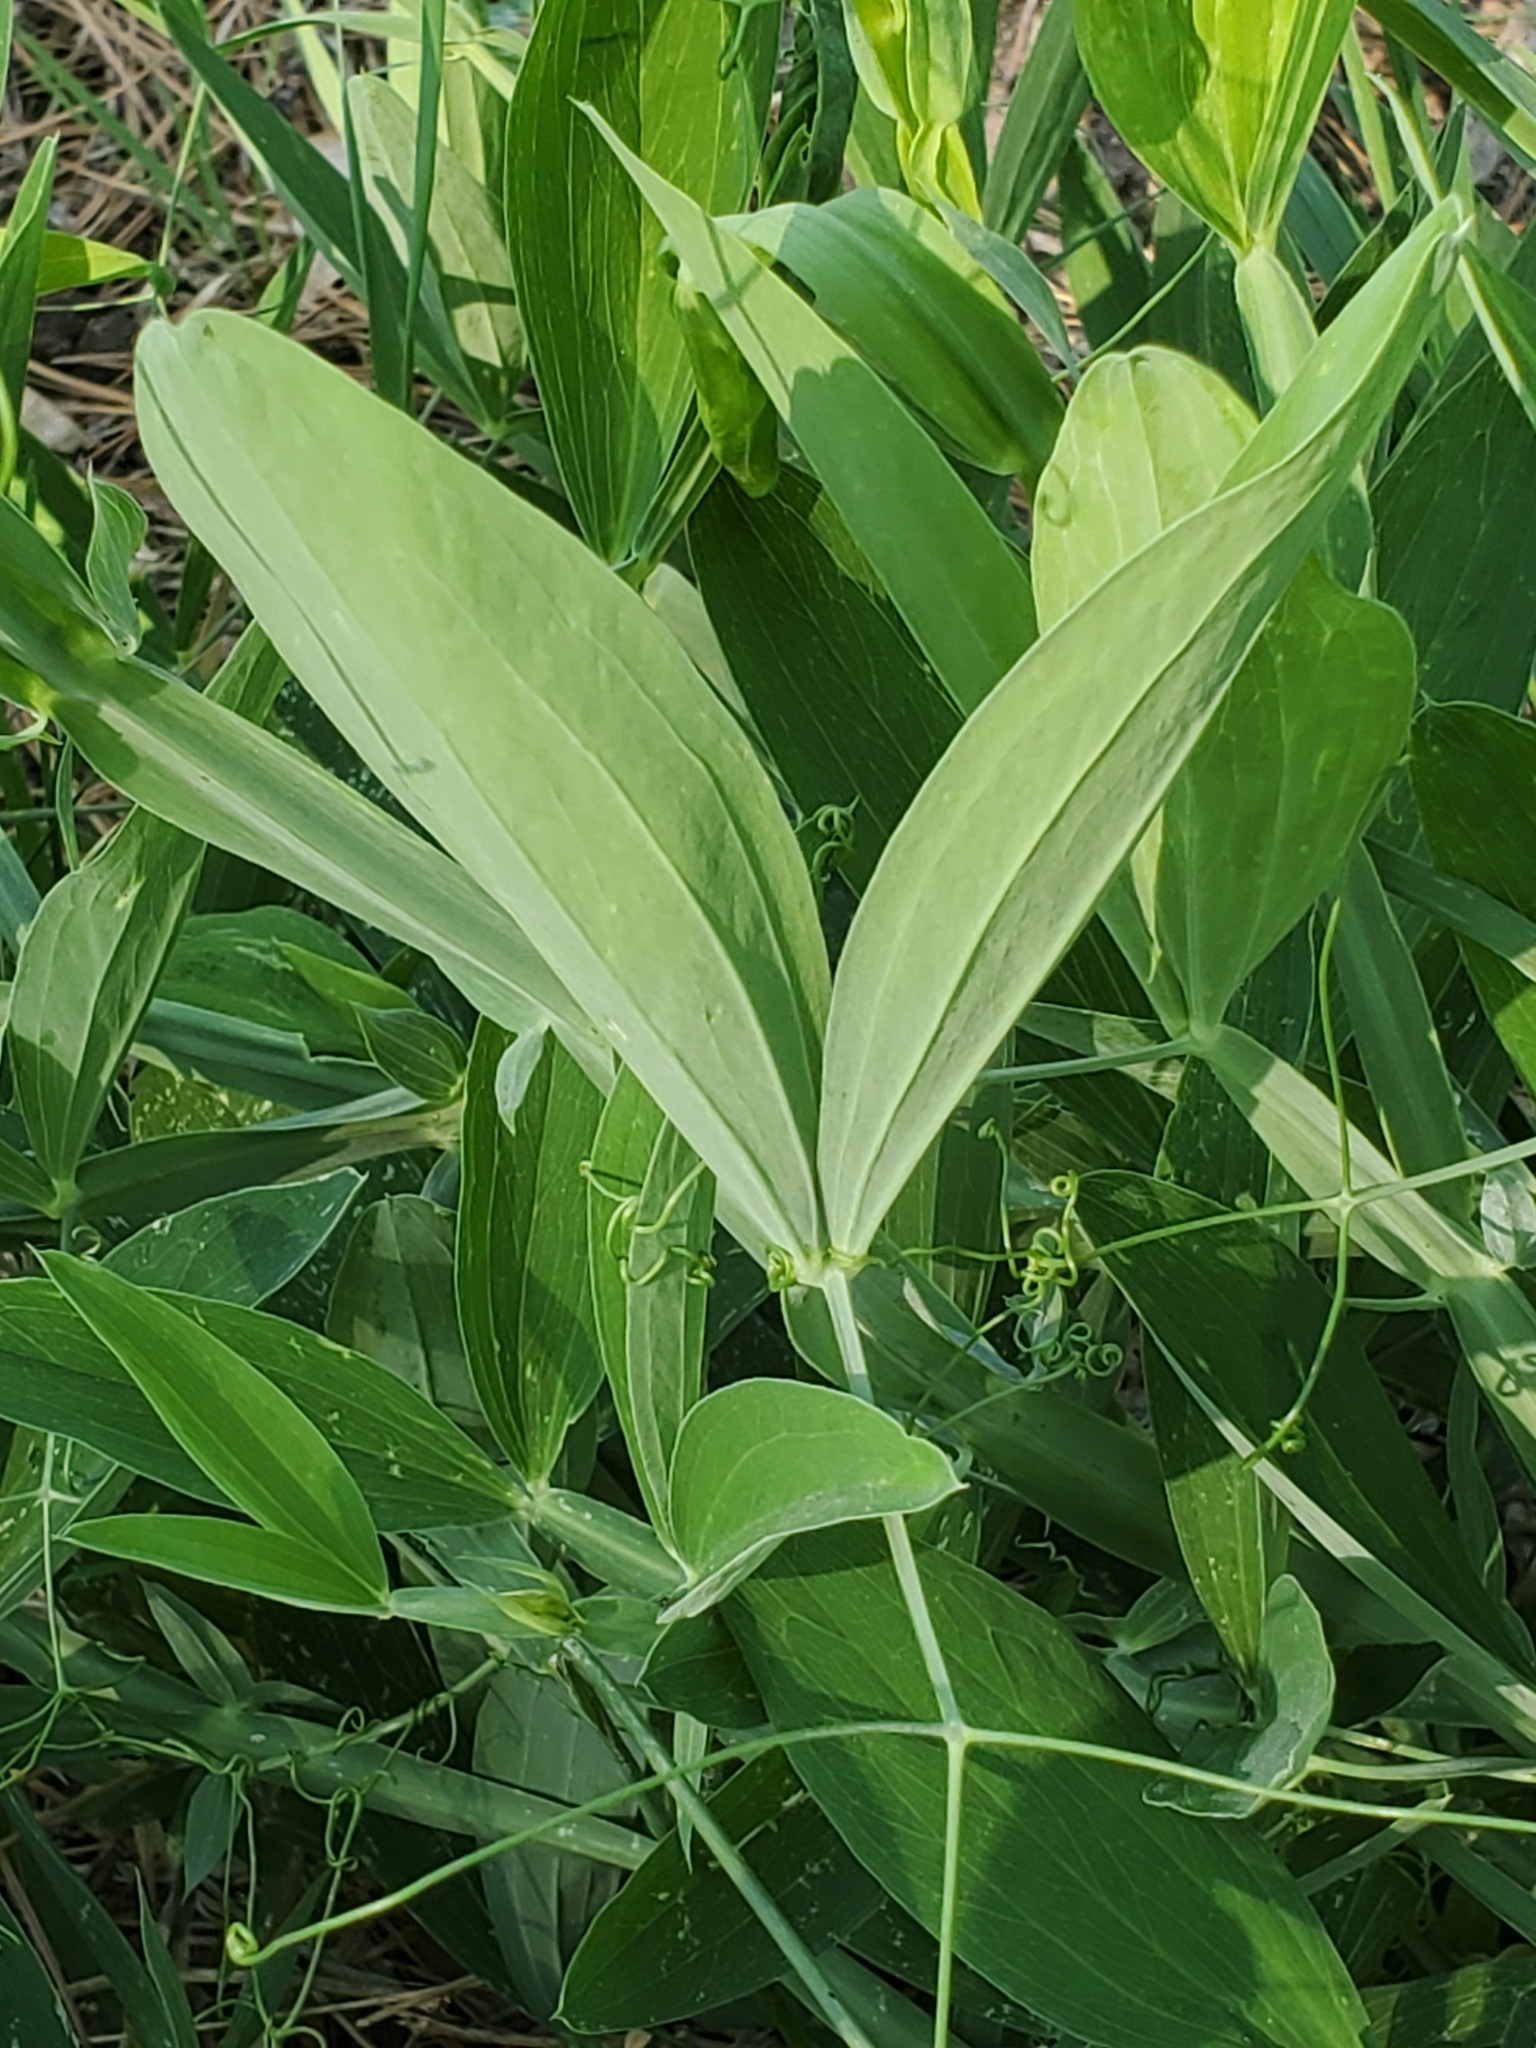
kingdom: Plantae
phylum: Tracheophyta
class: Magnoliopsida
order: Fabales
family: Fabaceae
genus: Lathyrus
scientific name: Lathyrus latifolius
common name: Perennial pea
